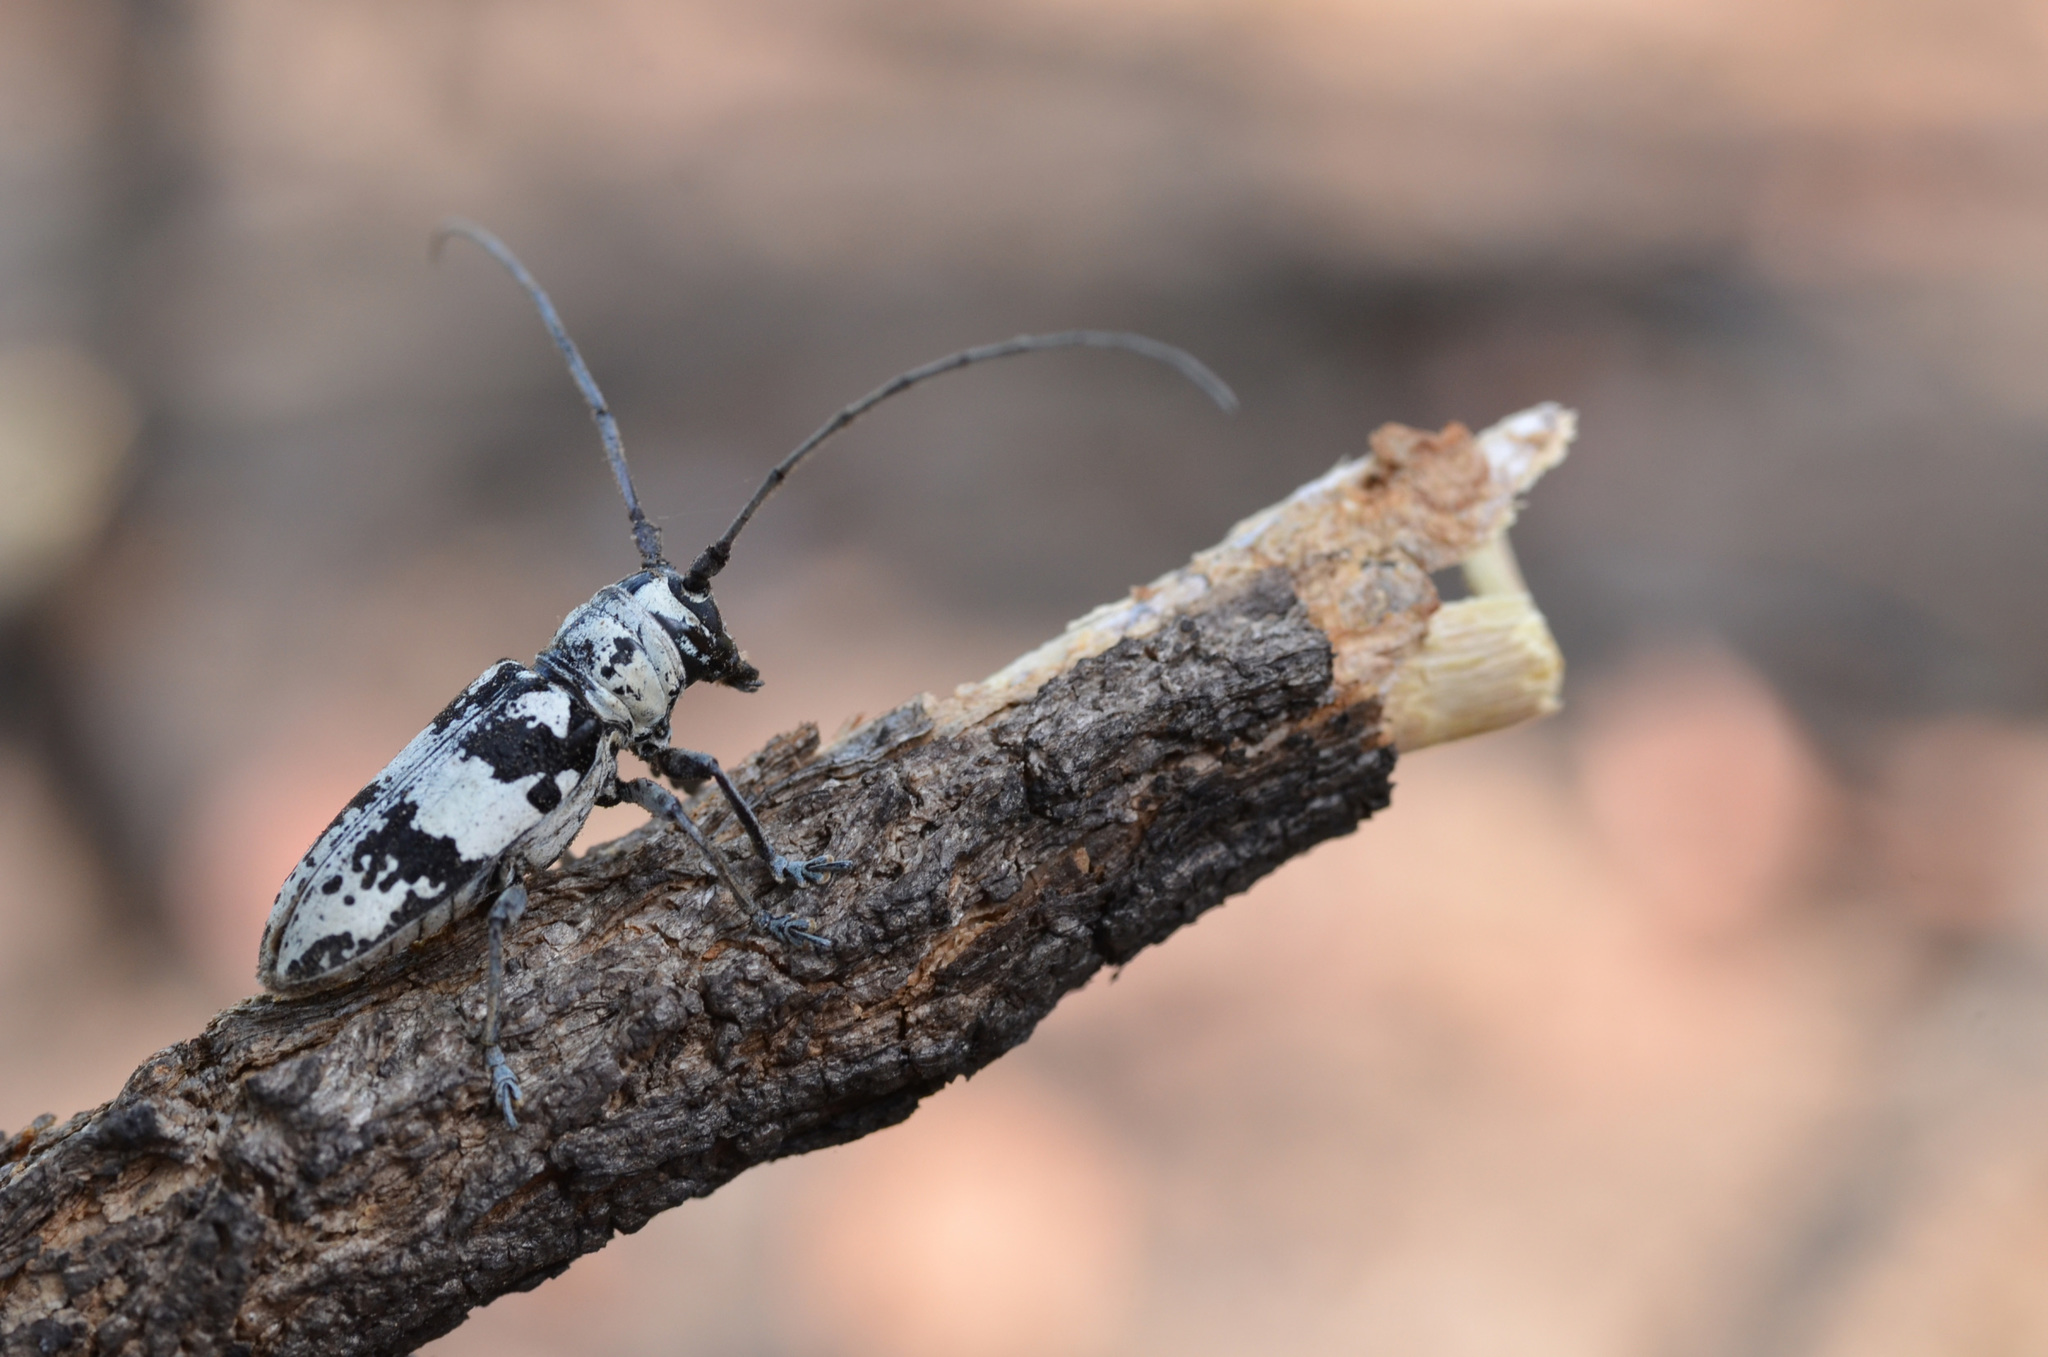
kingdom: Animalia
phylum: Arthropoda
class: Insecta
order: Coleoptera
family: Cerambycidae
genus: Bangalaia
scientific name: Bangalaia molitor
